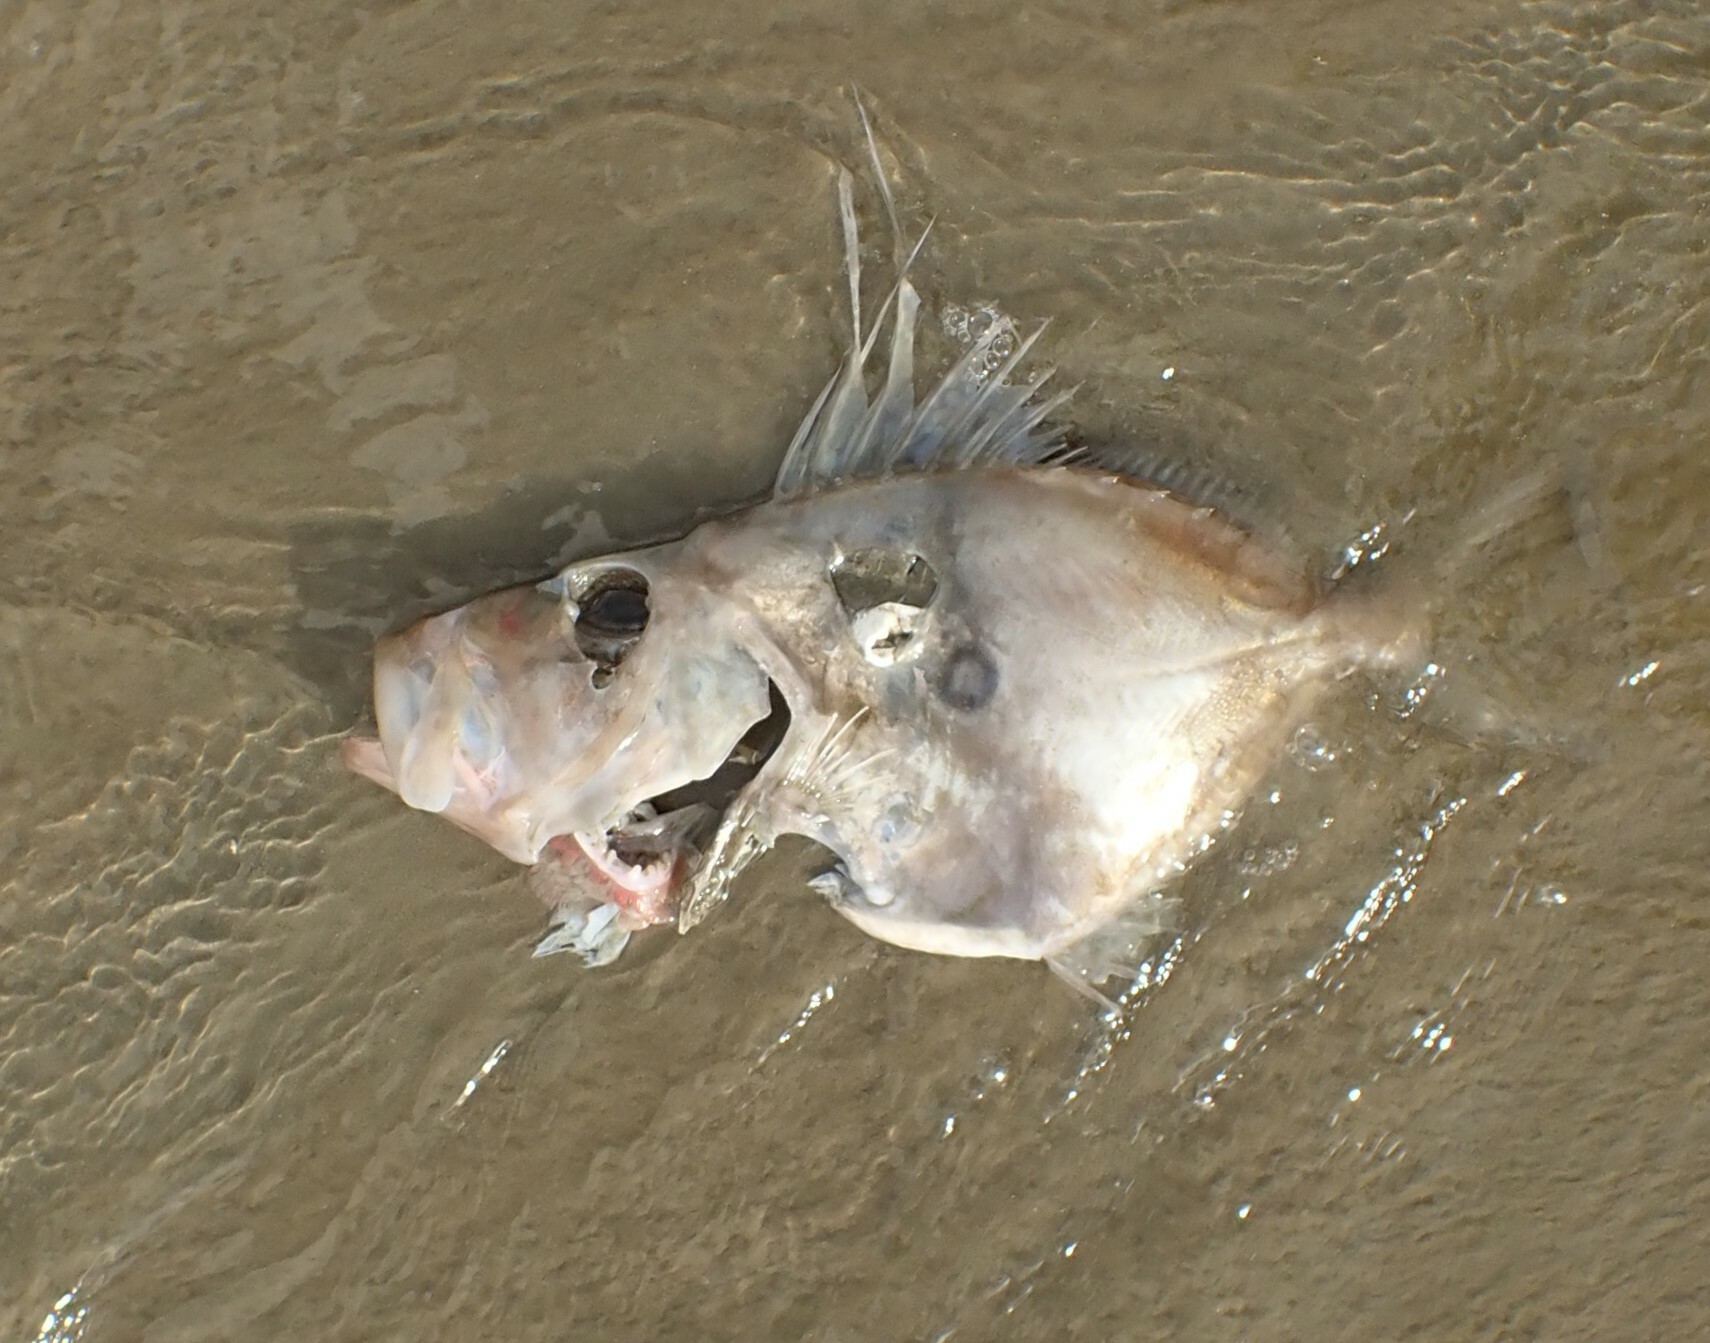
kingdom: Animalia
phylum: Chordata
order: Zeiformes
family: Zeidae
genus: Zeus
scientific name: Zeus faber
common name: John dory
